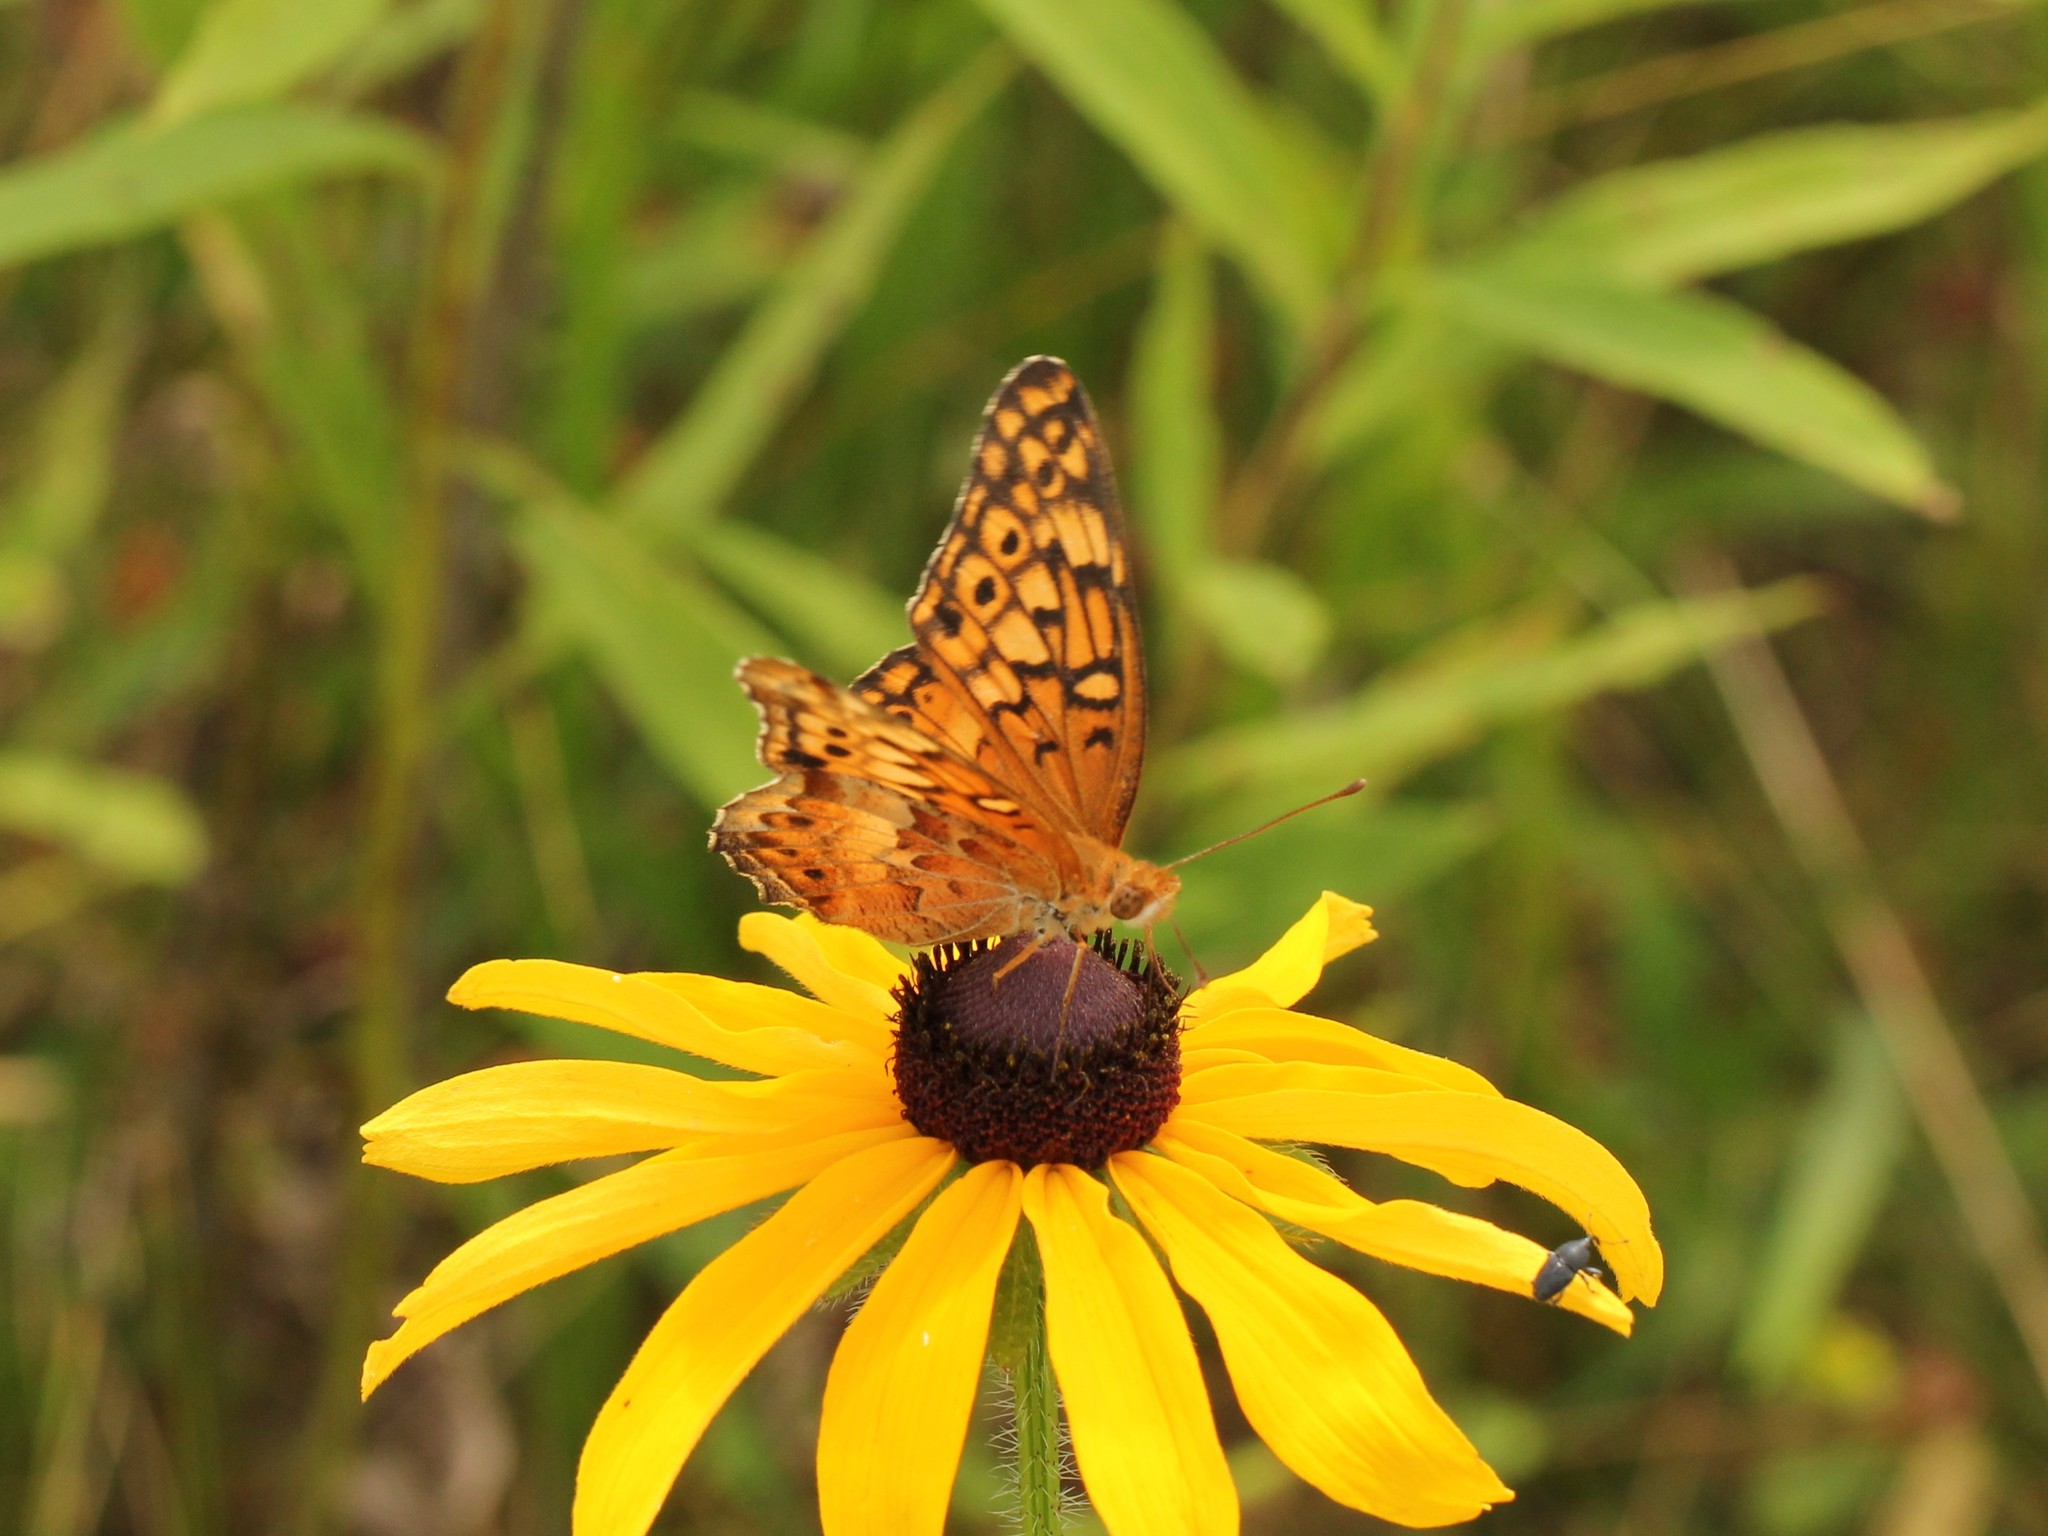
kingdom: Animalia
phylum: Arthropoda
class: Insecta
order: Lepidoptera
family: Nymphalidae
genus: Euptoieta
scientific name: Euptoieta claudia
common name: Variegated fritillary
